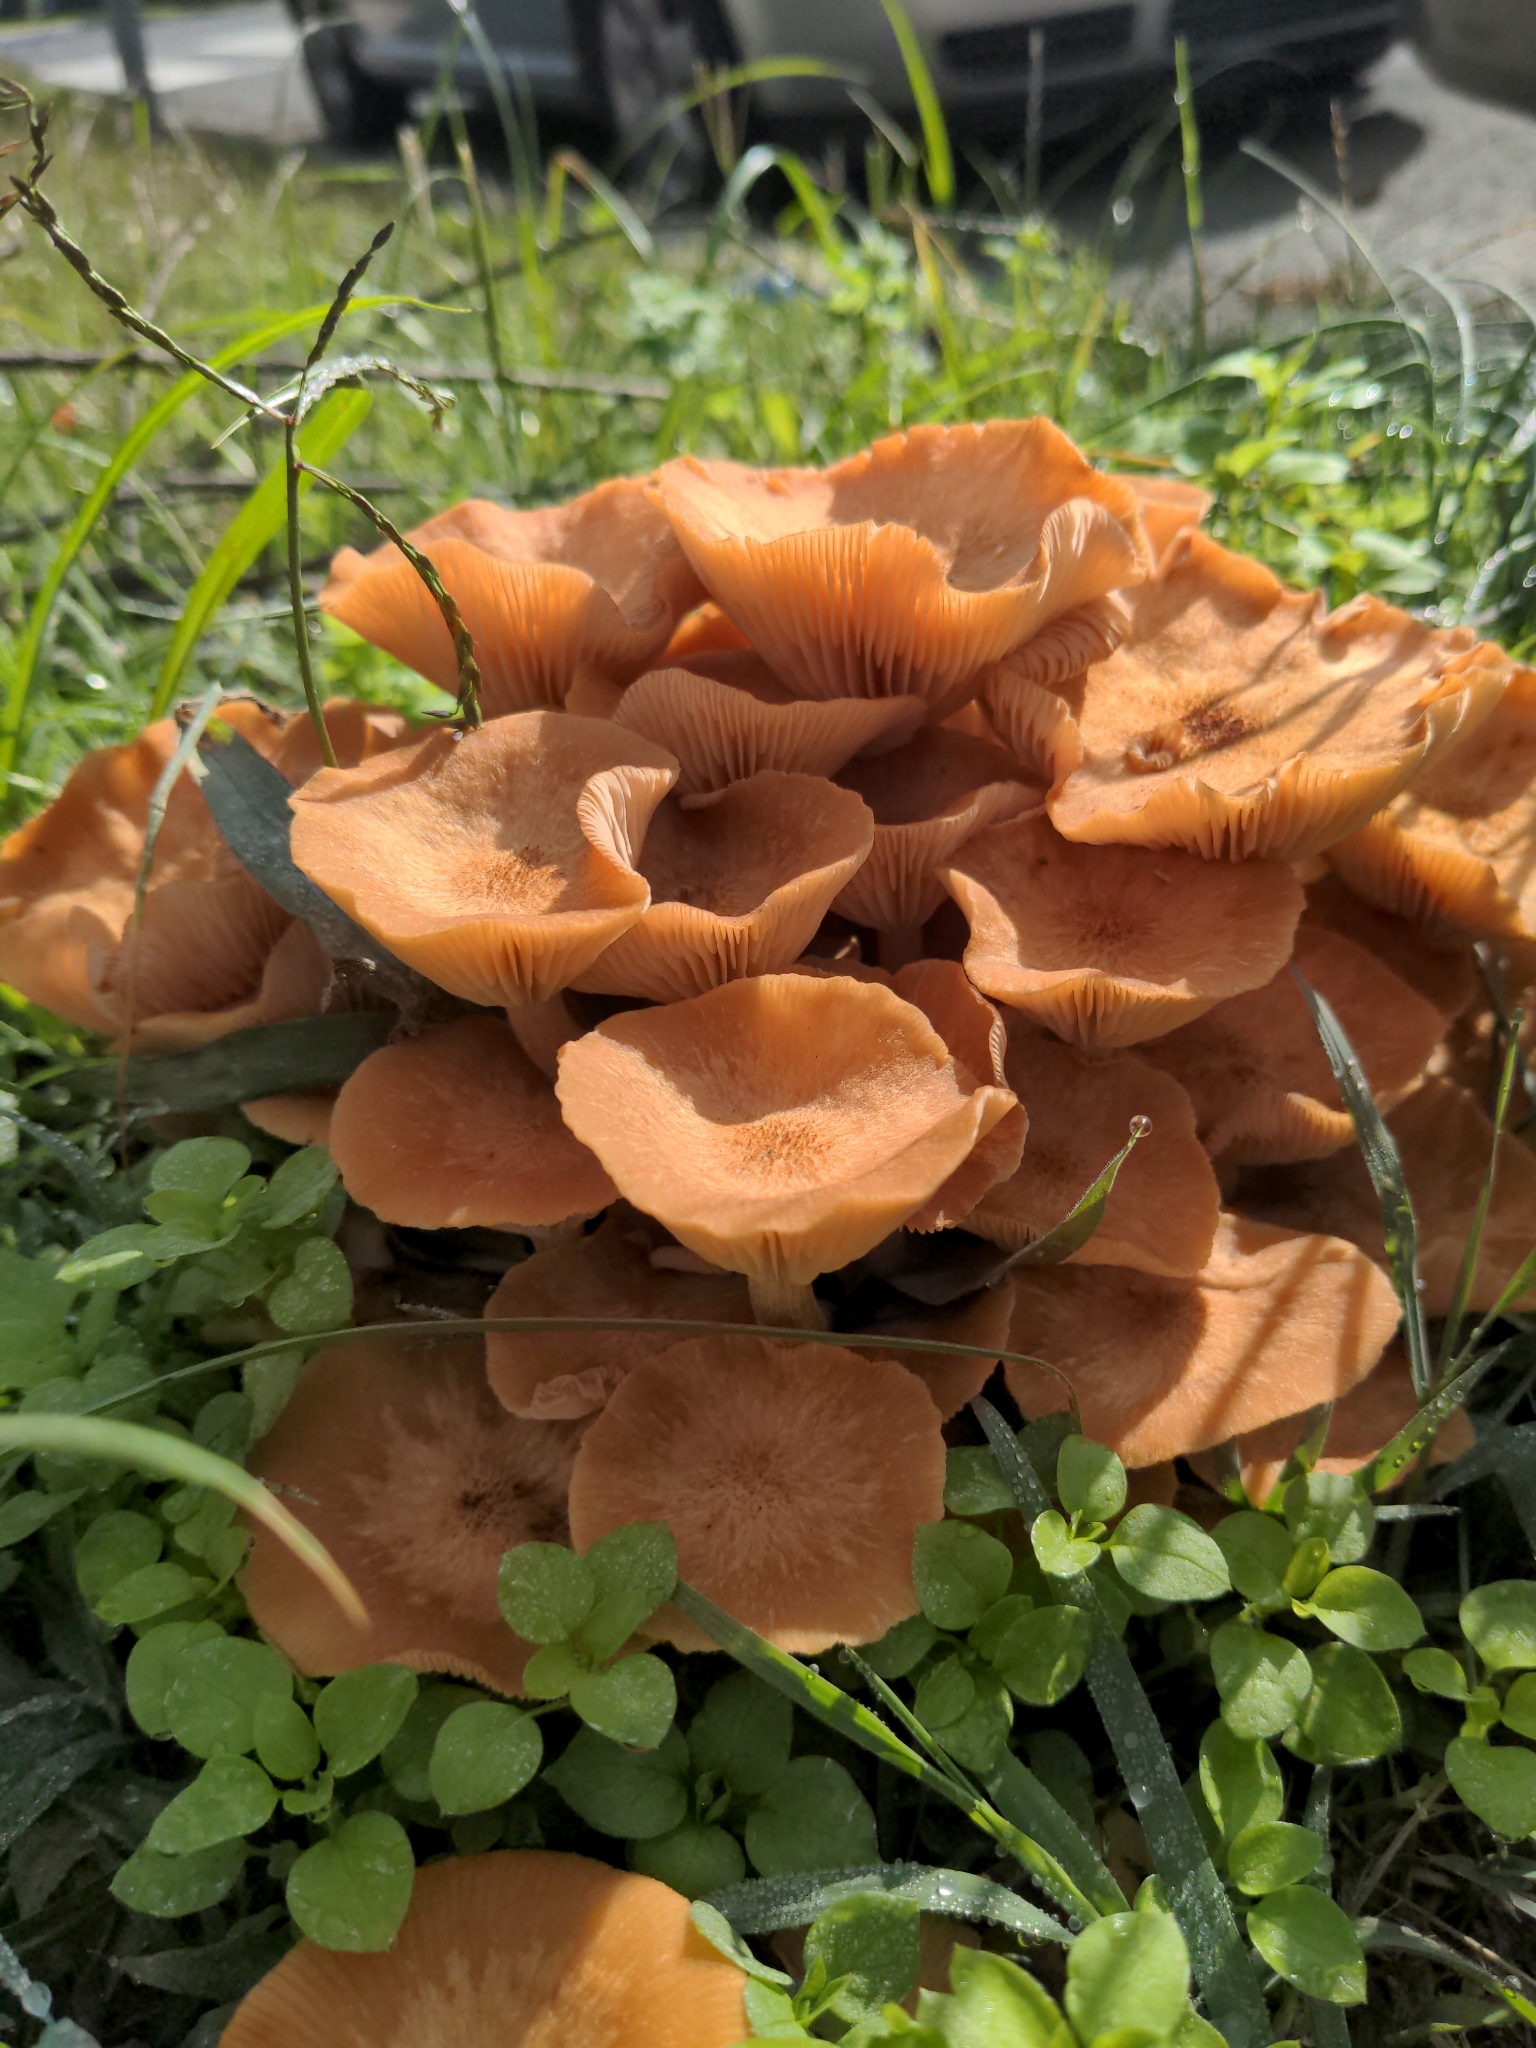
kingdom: Fungi
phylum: Basidiomycota
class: Agaricomycetes
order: Agaricales
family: Physalacriaceae
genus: Desarmillaria
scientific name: Desarmillaria caespitosa
